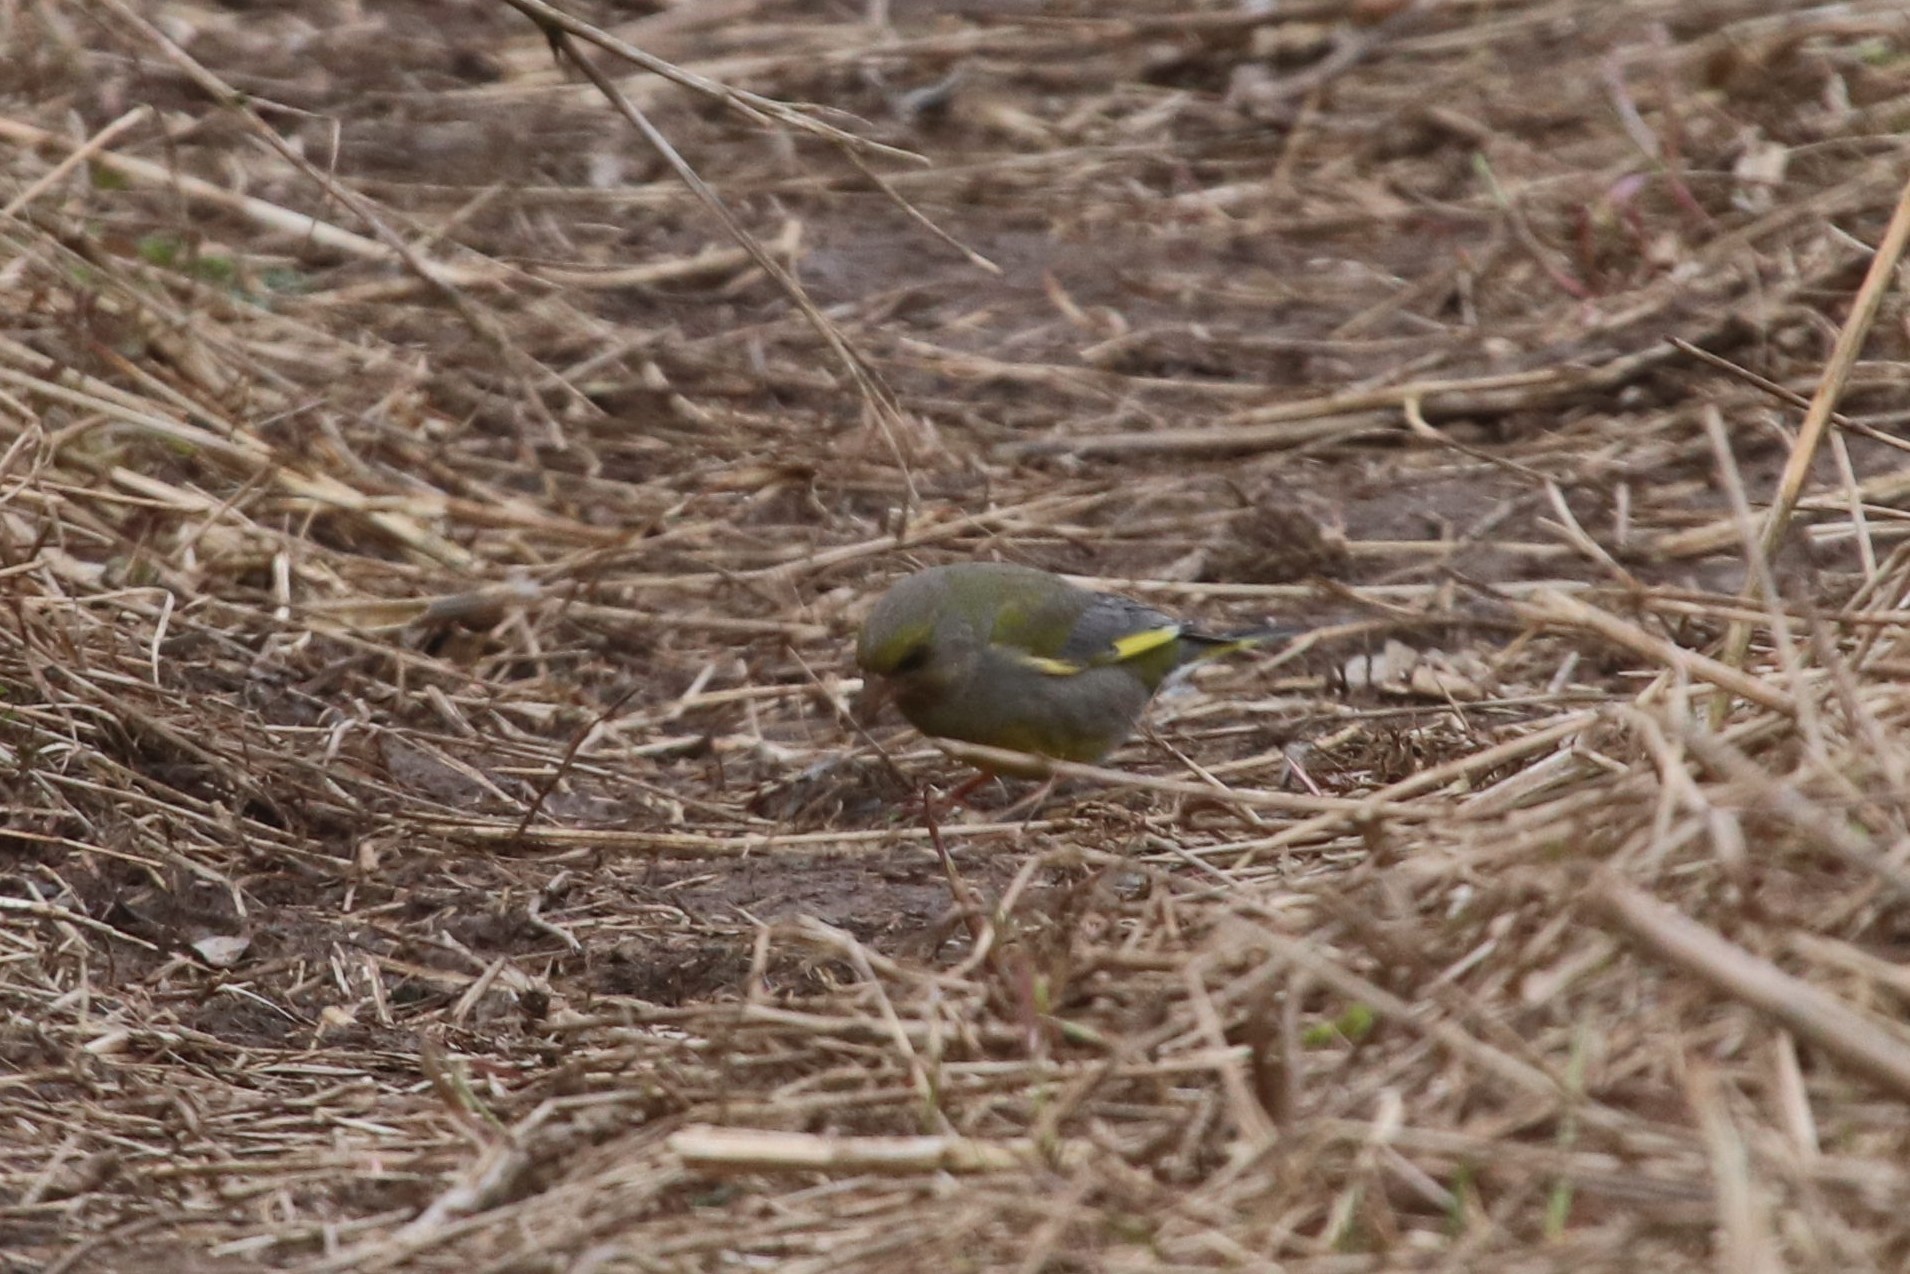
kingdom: Plantae
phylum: Tracheophyta
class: Liliopsida
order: Poales
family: Poaceae
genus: Chloris
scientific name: Chloris chloris
